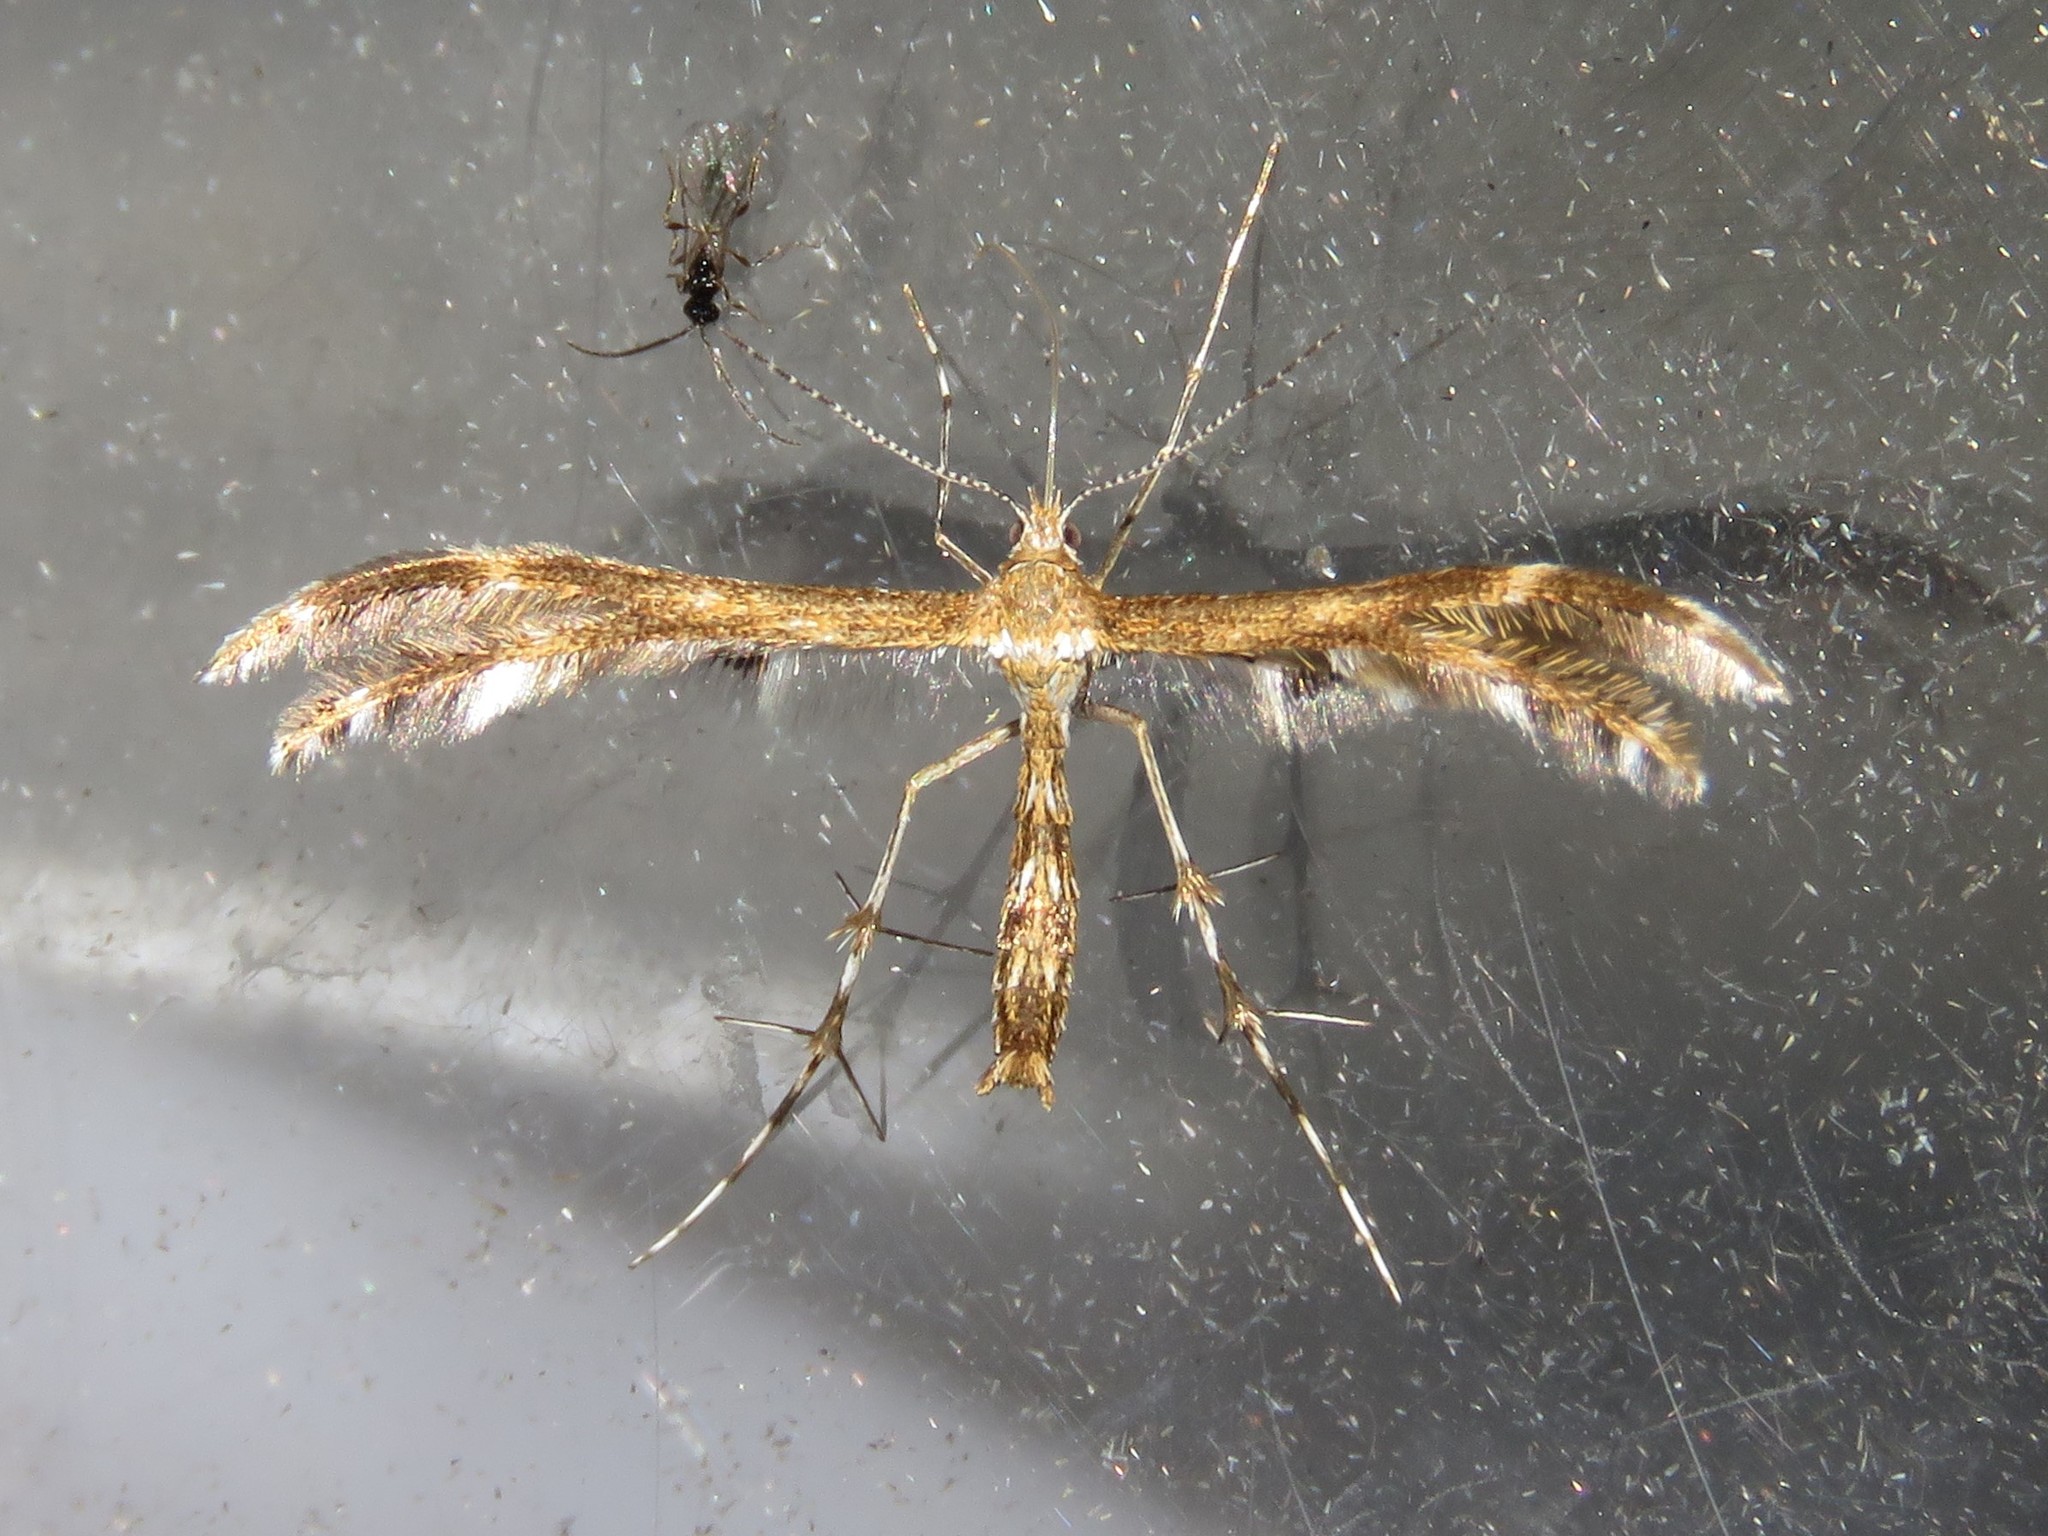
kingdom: Animalia
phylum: Arthropoda
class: Insecta
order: Lepidoptera
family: Pterophoridae
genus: Dejongia
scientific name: Dejongia lobidactylus
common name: Lobed plume moth
